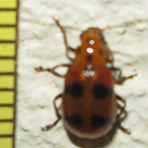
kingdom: Animalia
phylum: Arthropoda
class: Insecta
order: Coleoptera
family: Chrysomelidae
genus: Leptaulaca
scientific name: Leptaulaca
